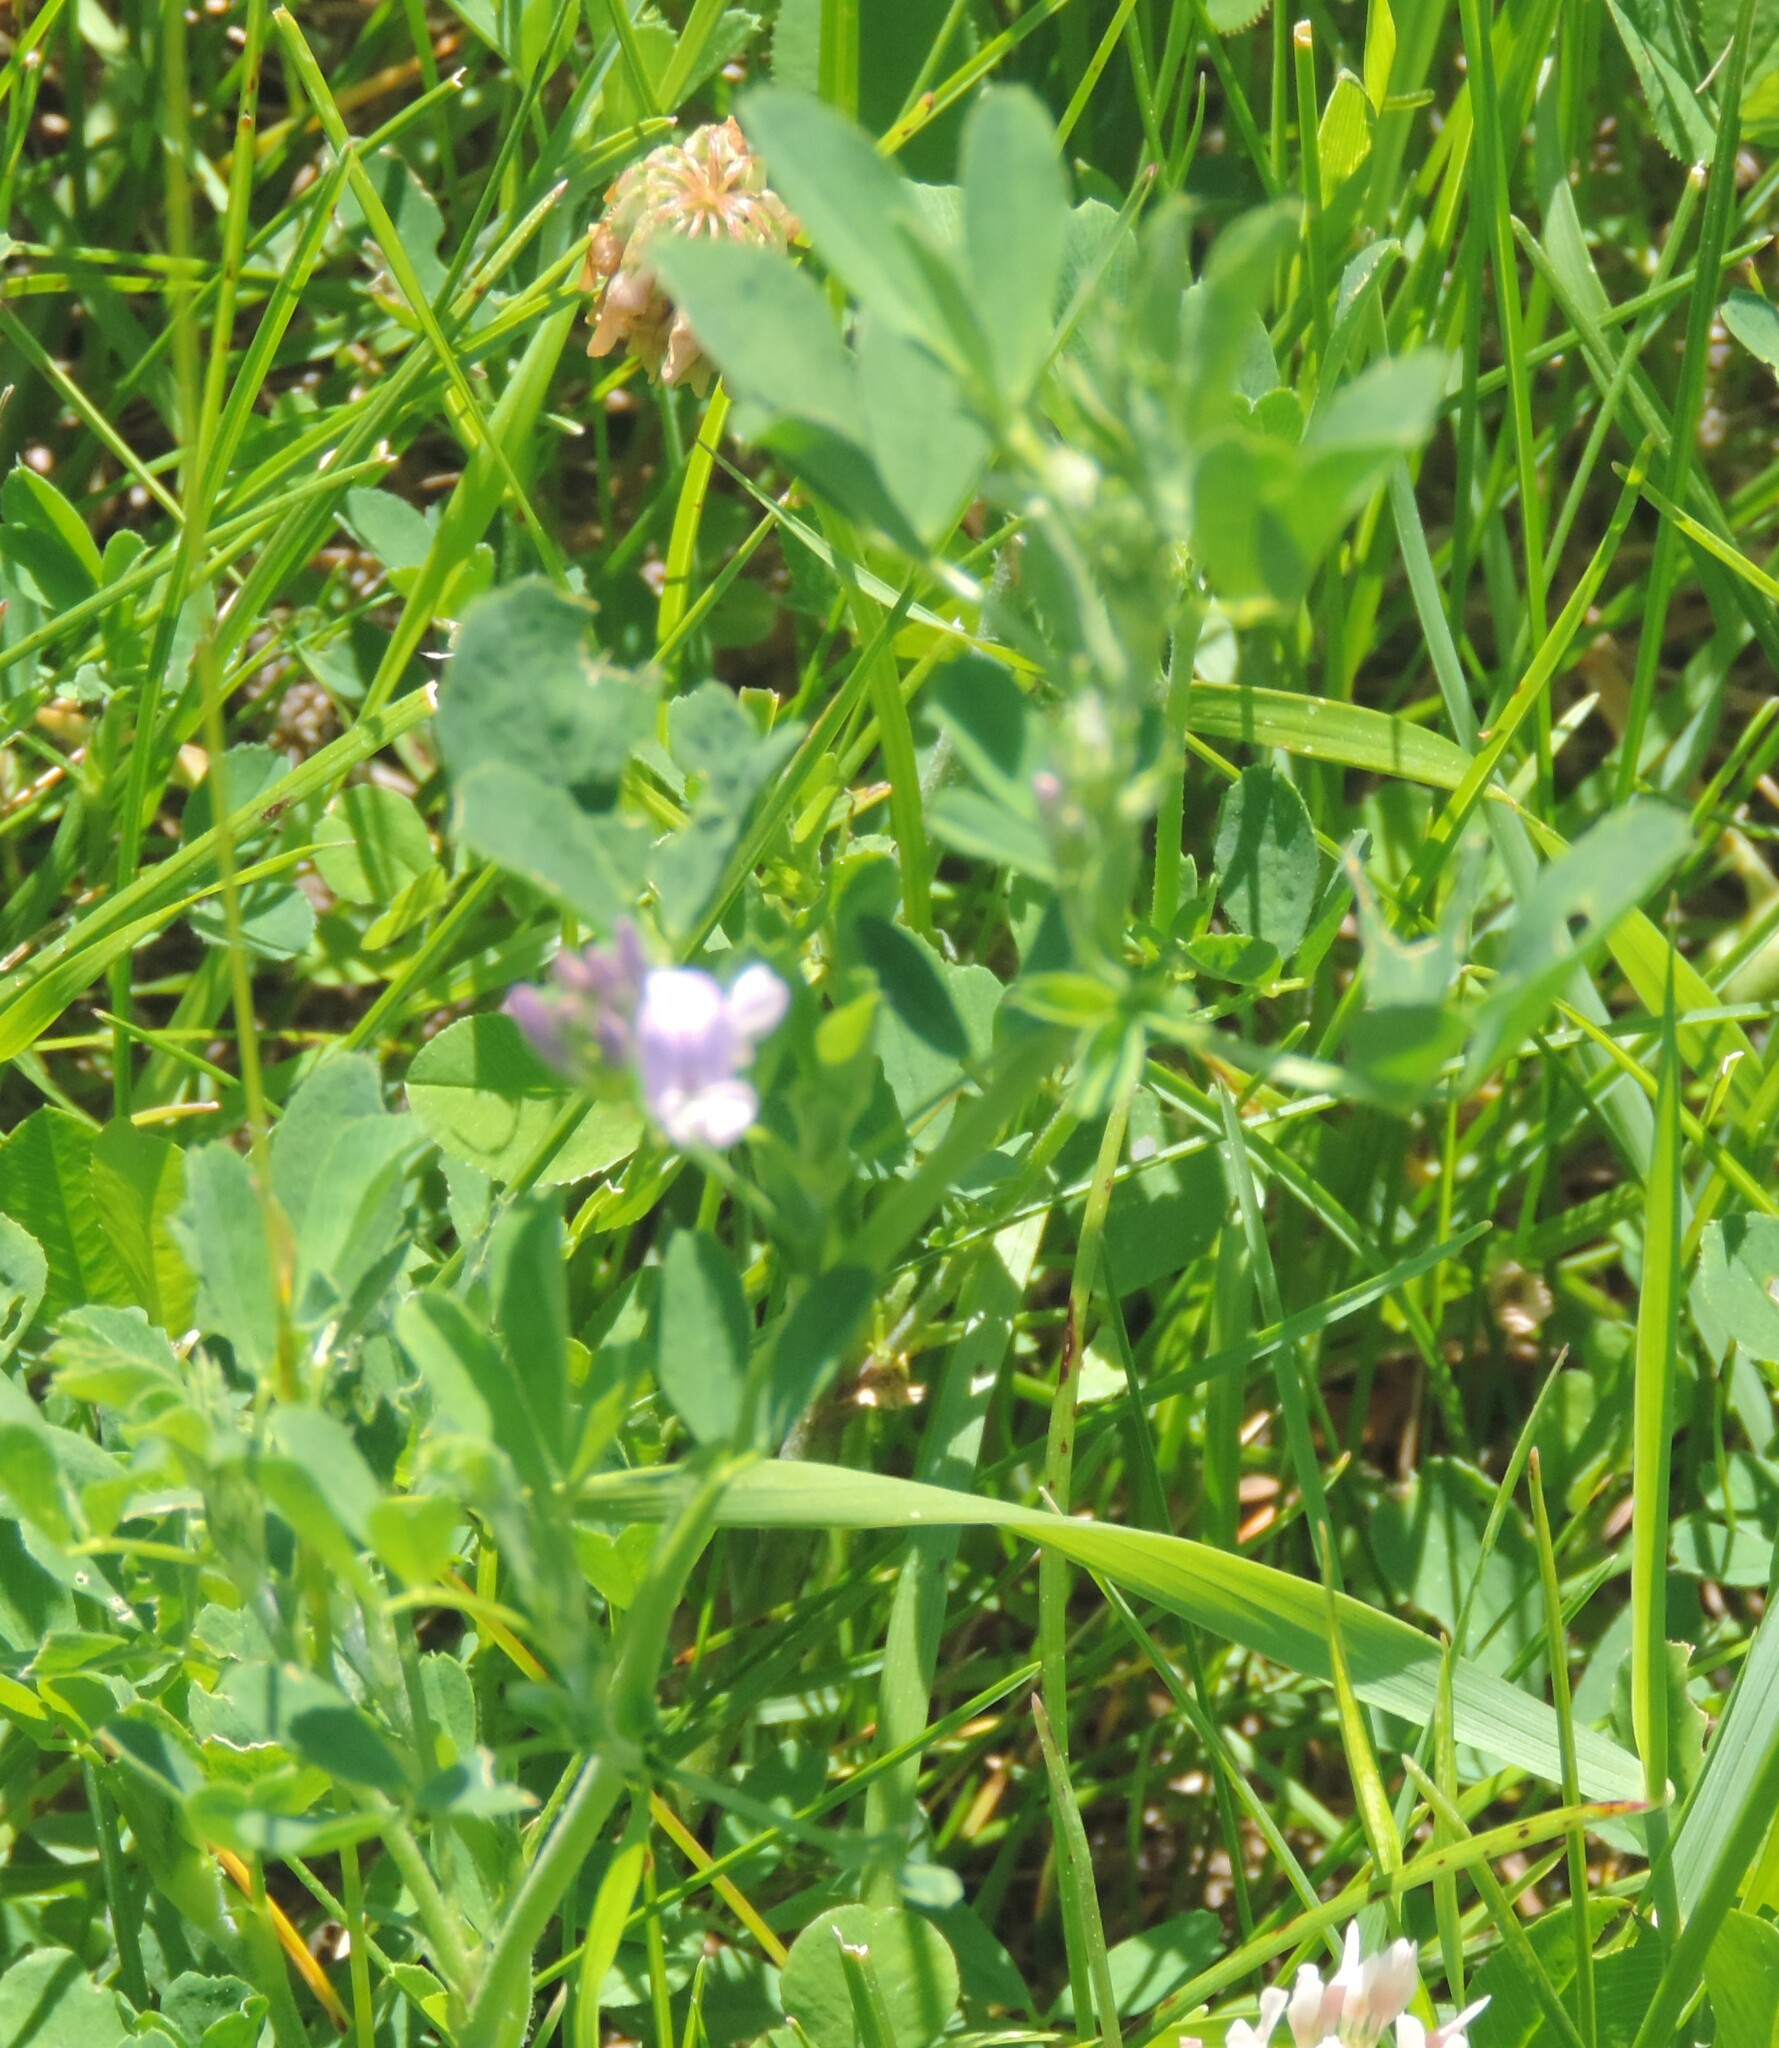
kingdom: Plantae
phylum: Tracheophyta
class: Magnoliopsida
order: Fabales
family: Fabaceae
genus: Medicago
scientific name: Medicago sativa
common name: Alfalfa
